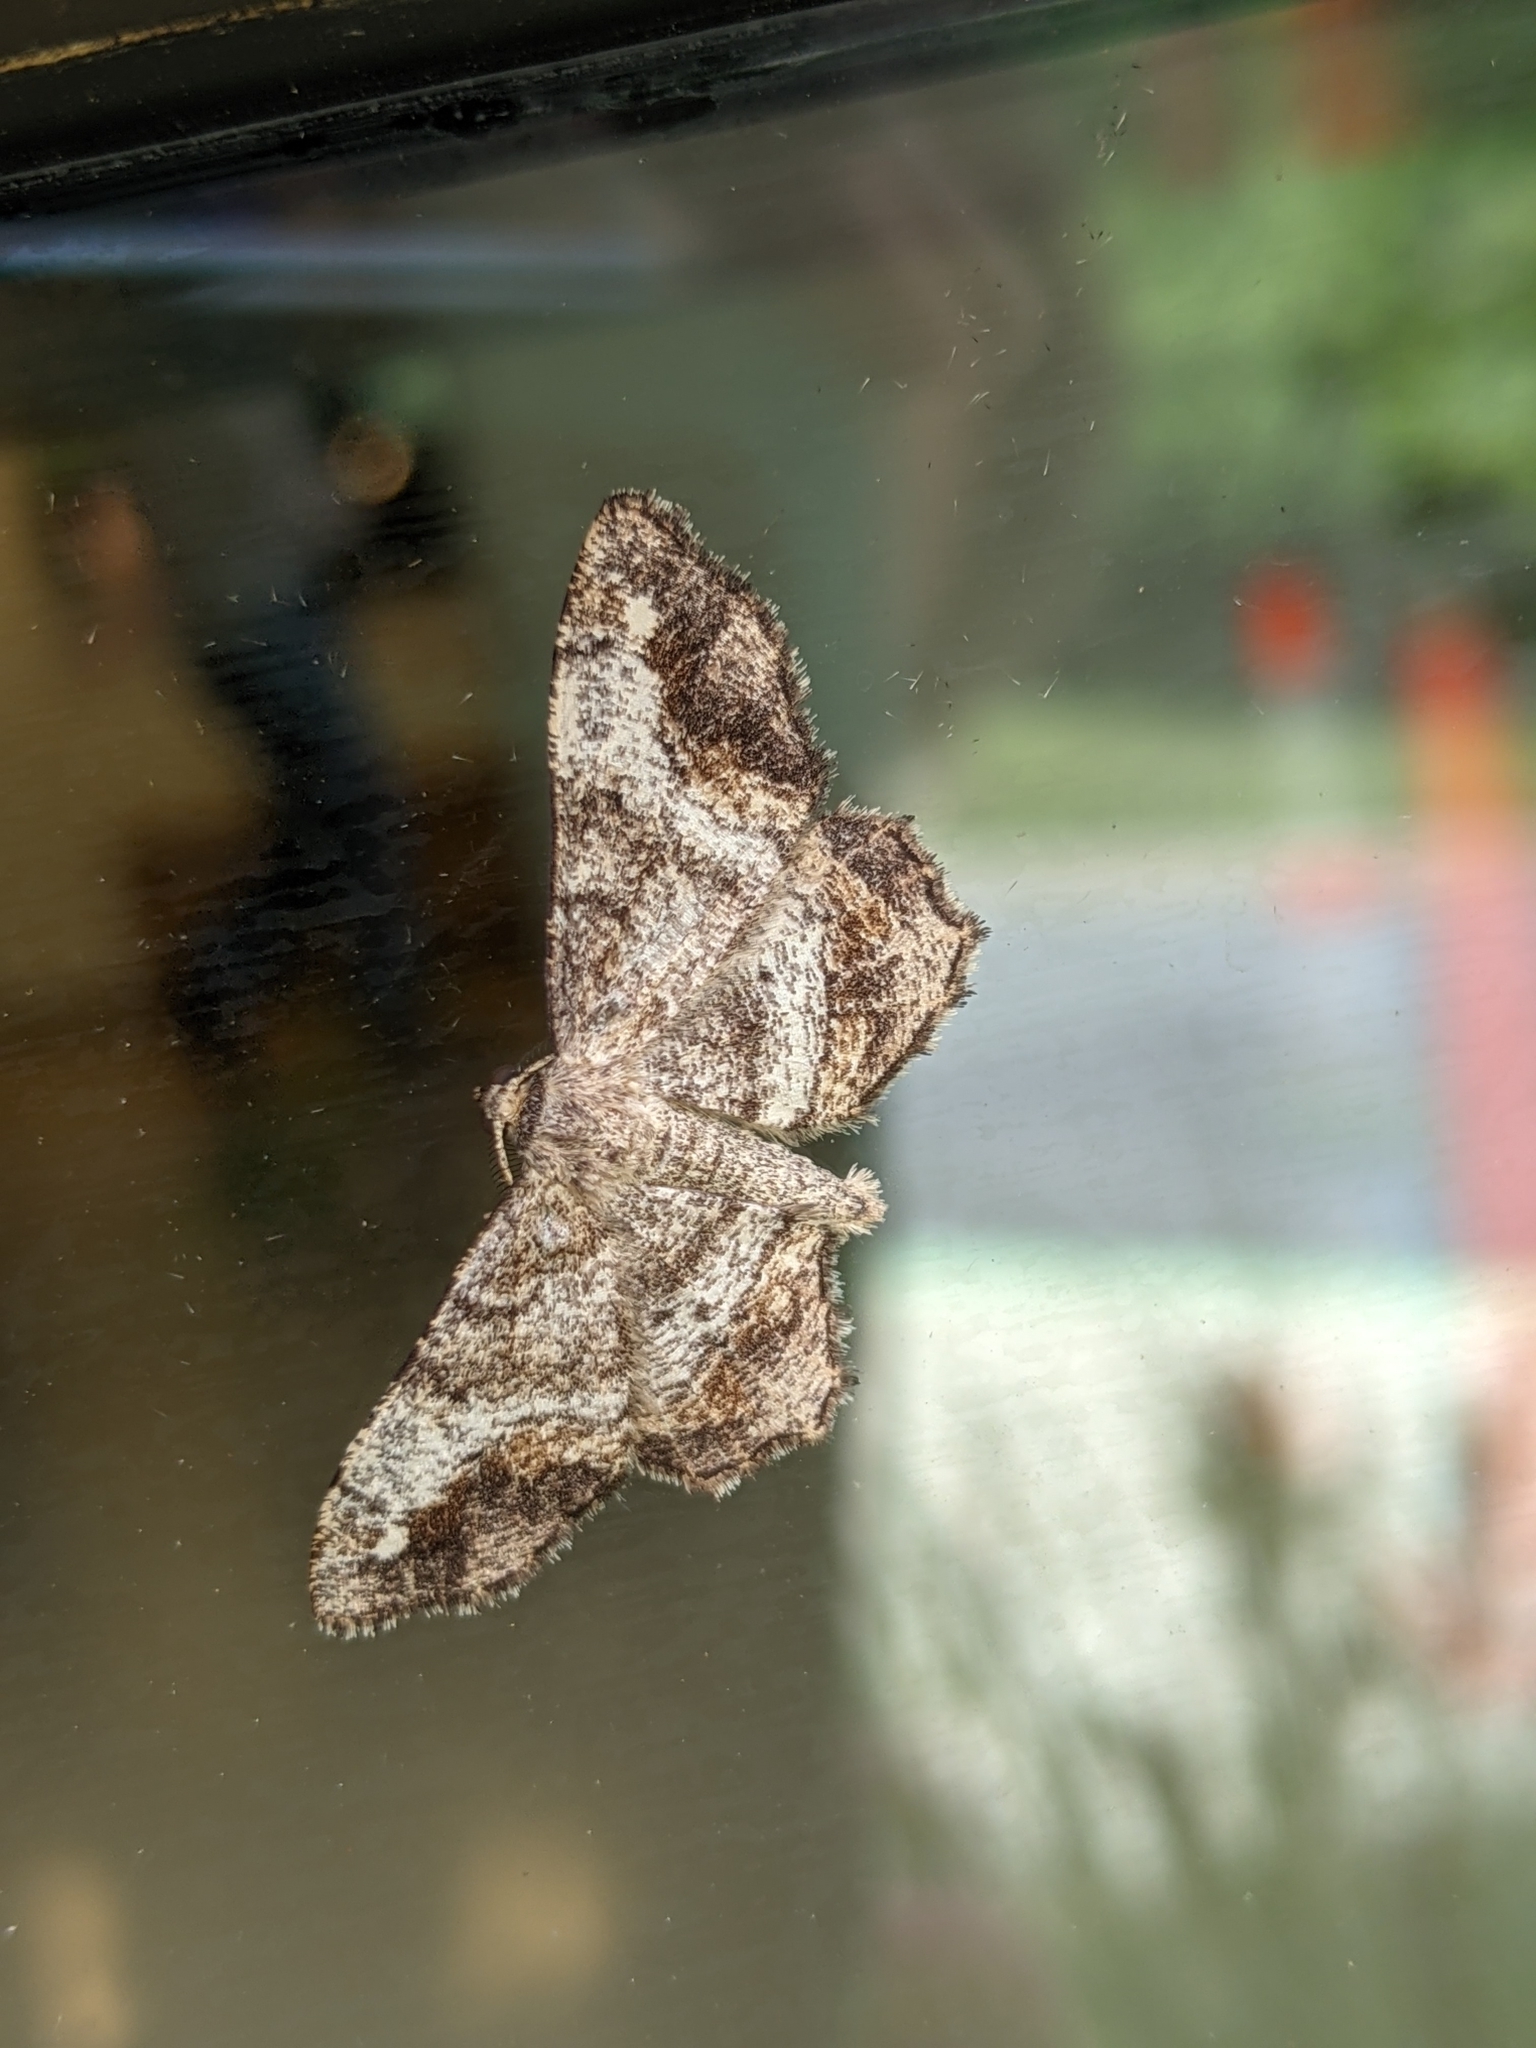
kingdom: Animalia
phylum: Arthropoda
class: Insecta
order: Lepidoptera
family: Geometridae
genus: Hypagyrtis
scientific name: Hypagyrtis unipunctata
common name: One-spotted variant
